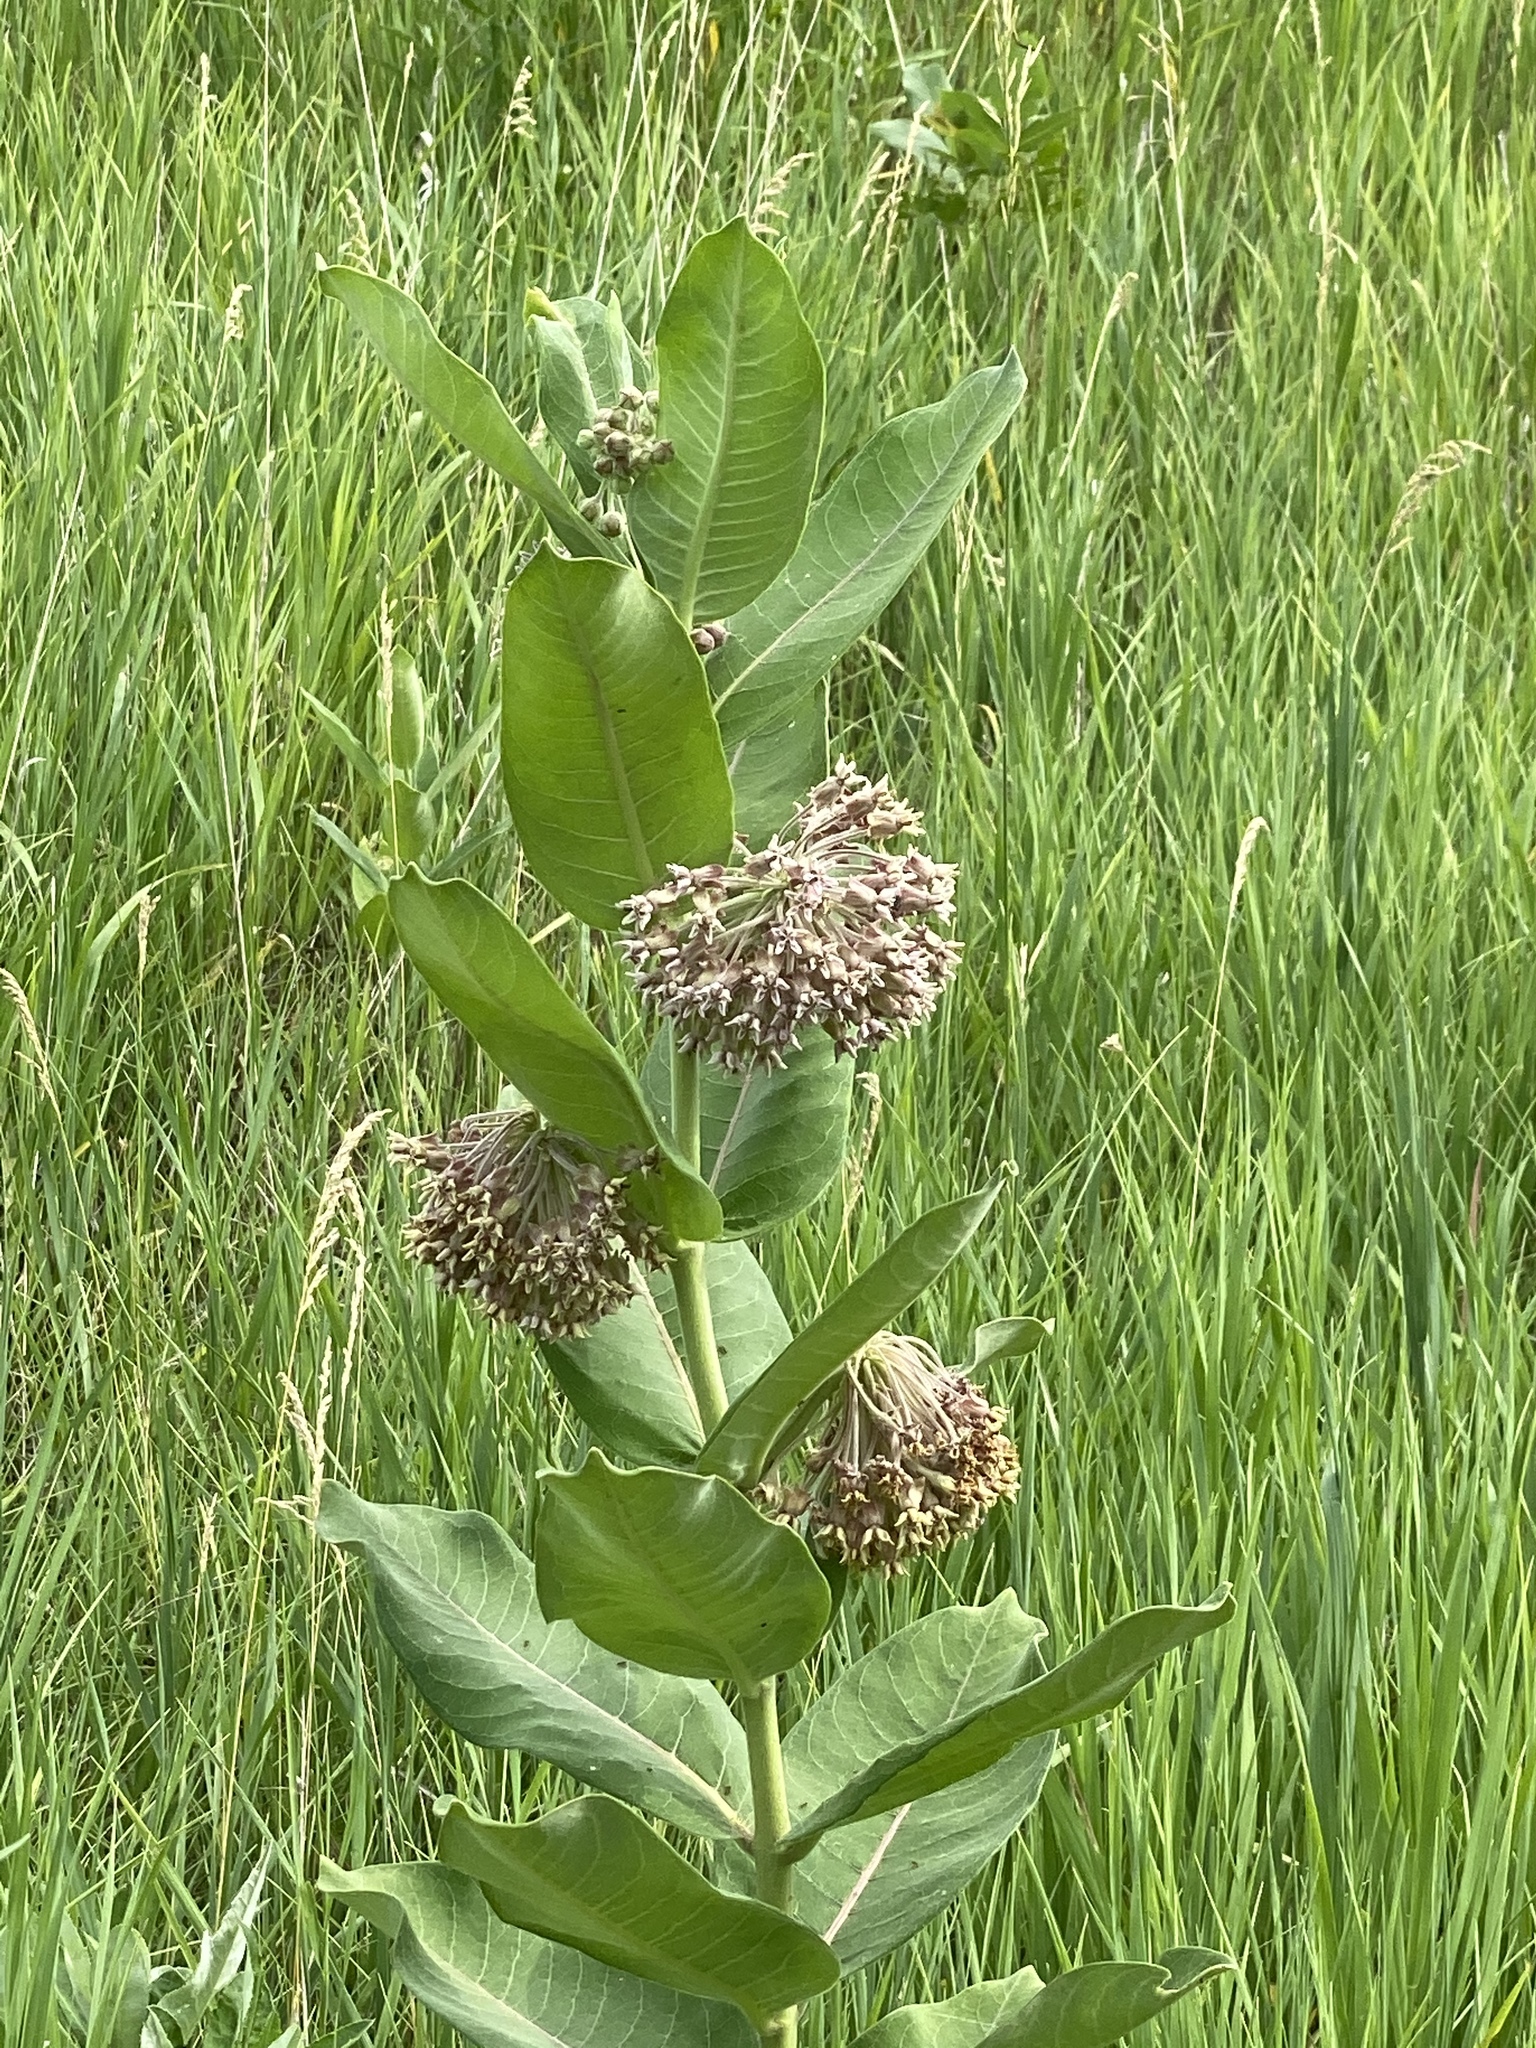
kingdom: Plantae
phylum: Tracheophyta
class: Magnoliopsida
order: Gentianales
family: Apocynaceae
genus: Asclepias
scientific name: Asclepias syriaca
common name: Common milkweed
